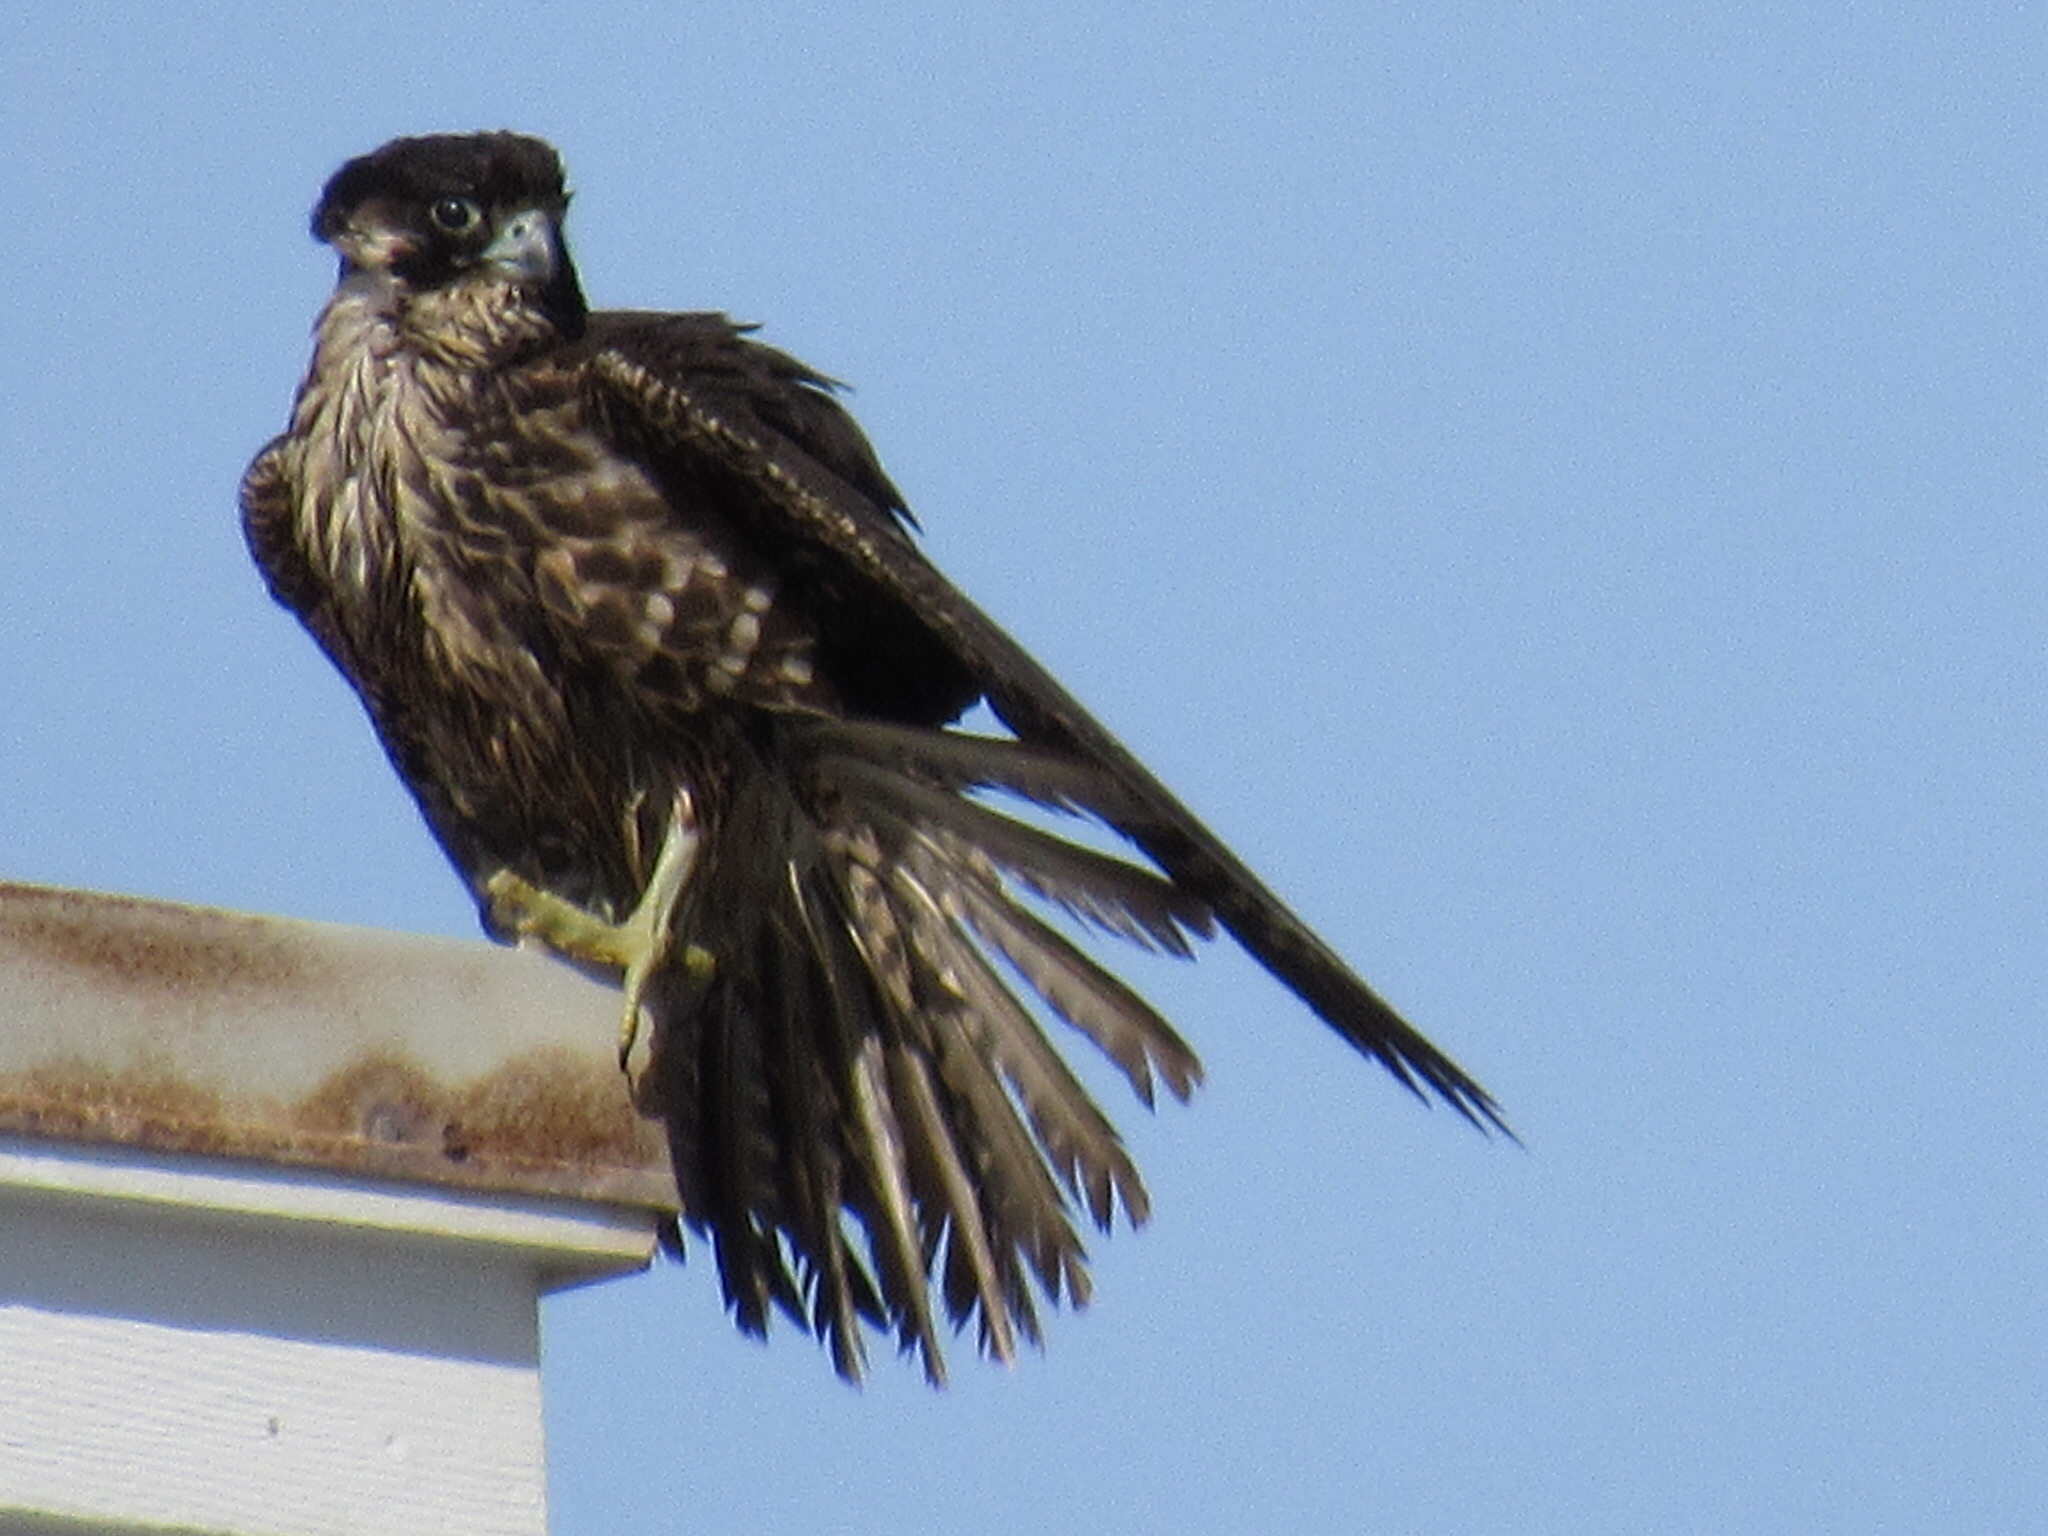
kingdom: Animalia
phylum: Chordata
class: Aves
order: Falconiformes
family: Falconidae
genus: Falco
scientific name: Falco peregrinus
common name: Peregrine falcon
